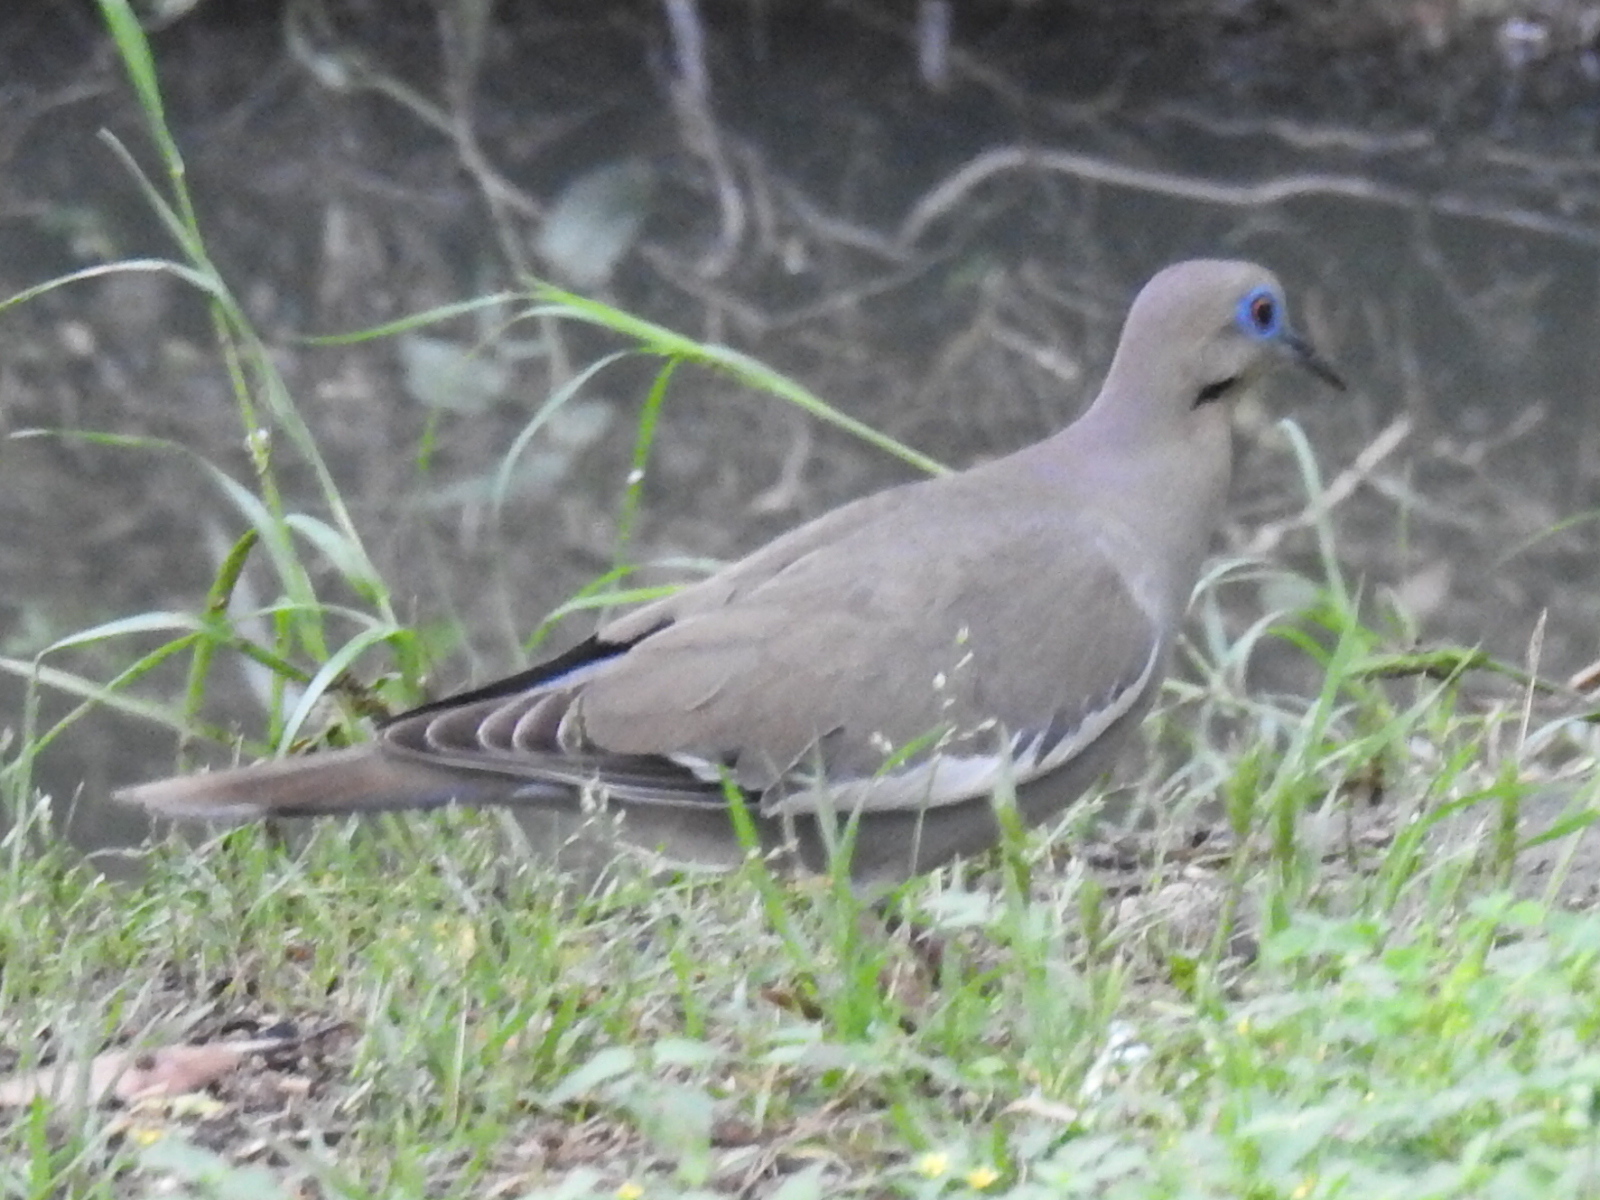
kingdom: Animalia
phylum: Chordata
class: Aves
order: Columbiformes
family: Columbidae
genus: Zenaida
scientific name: Zenaida asiatica
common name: White-winged dove
